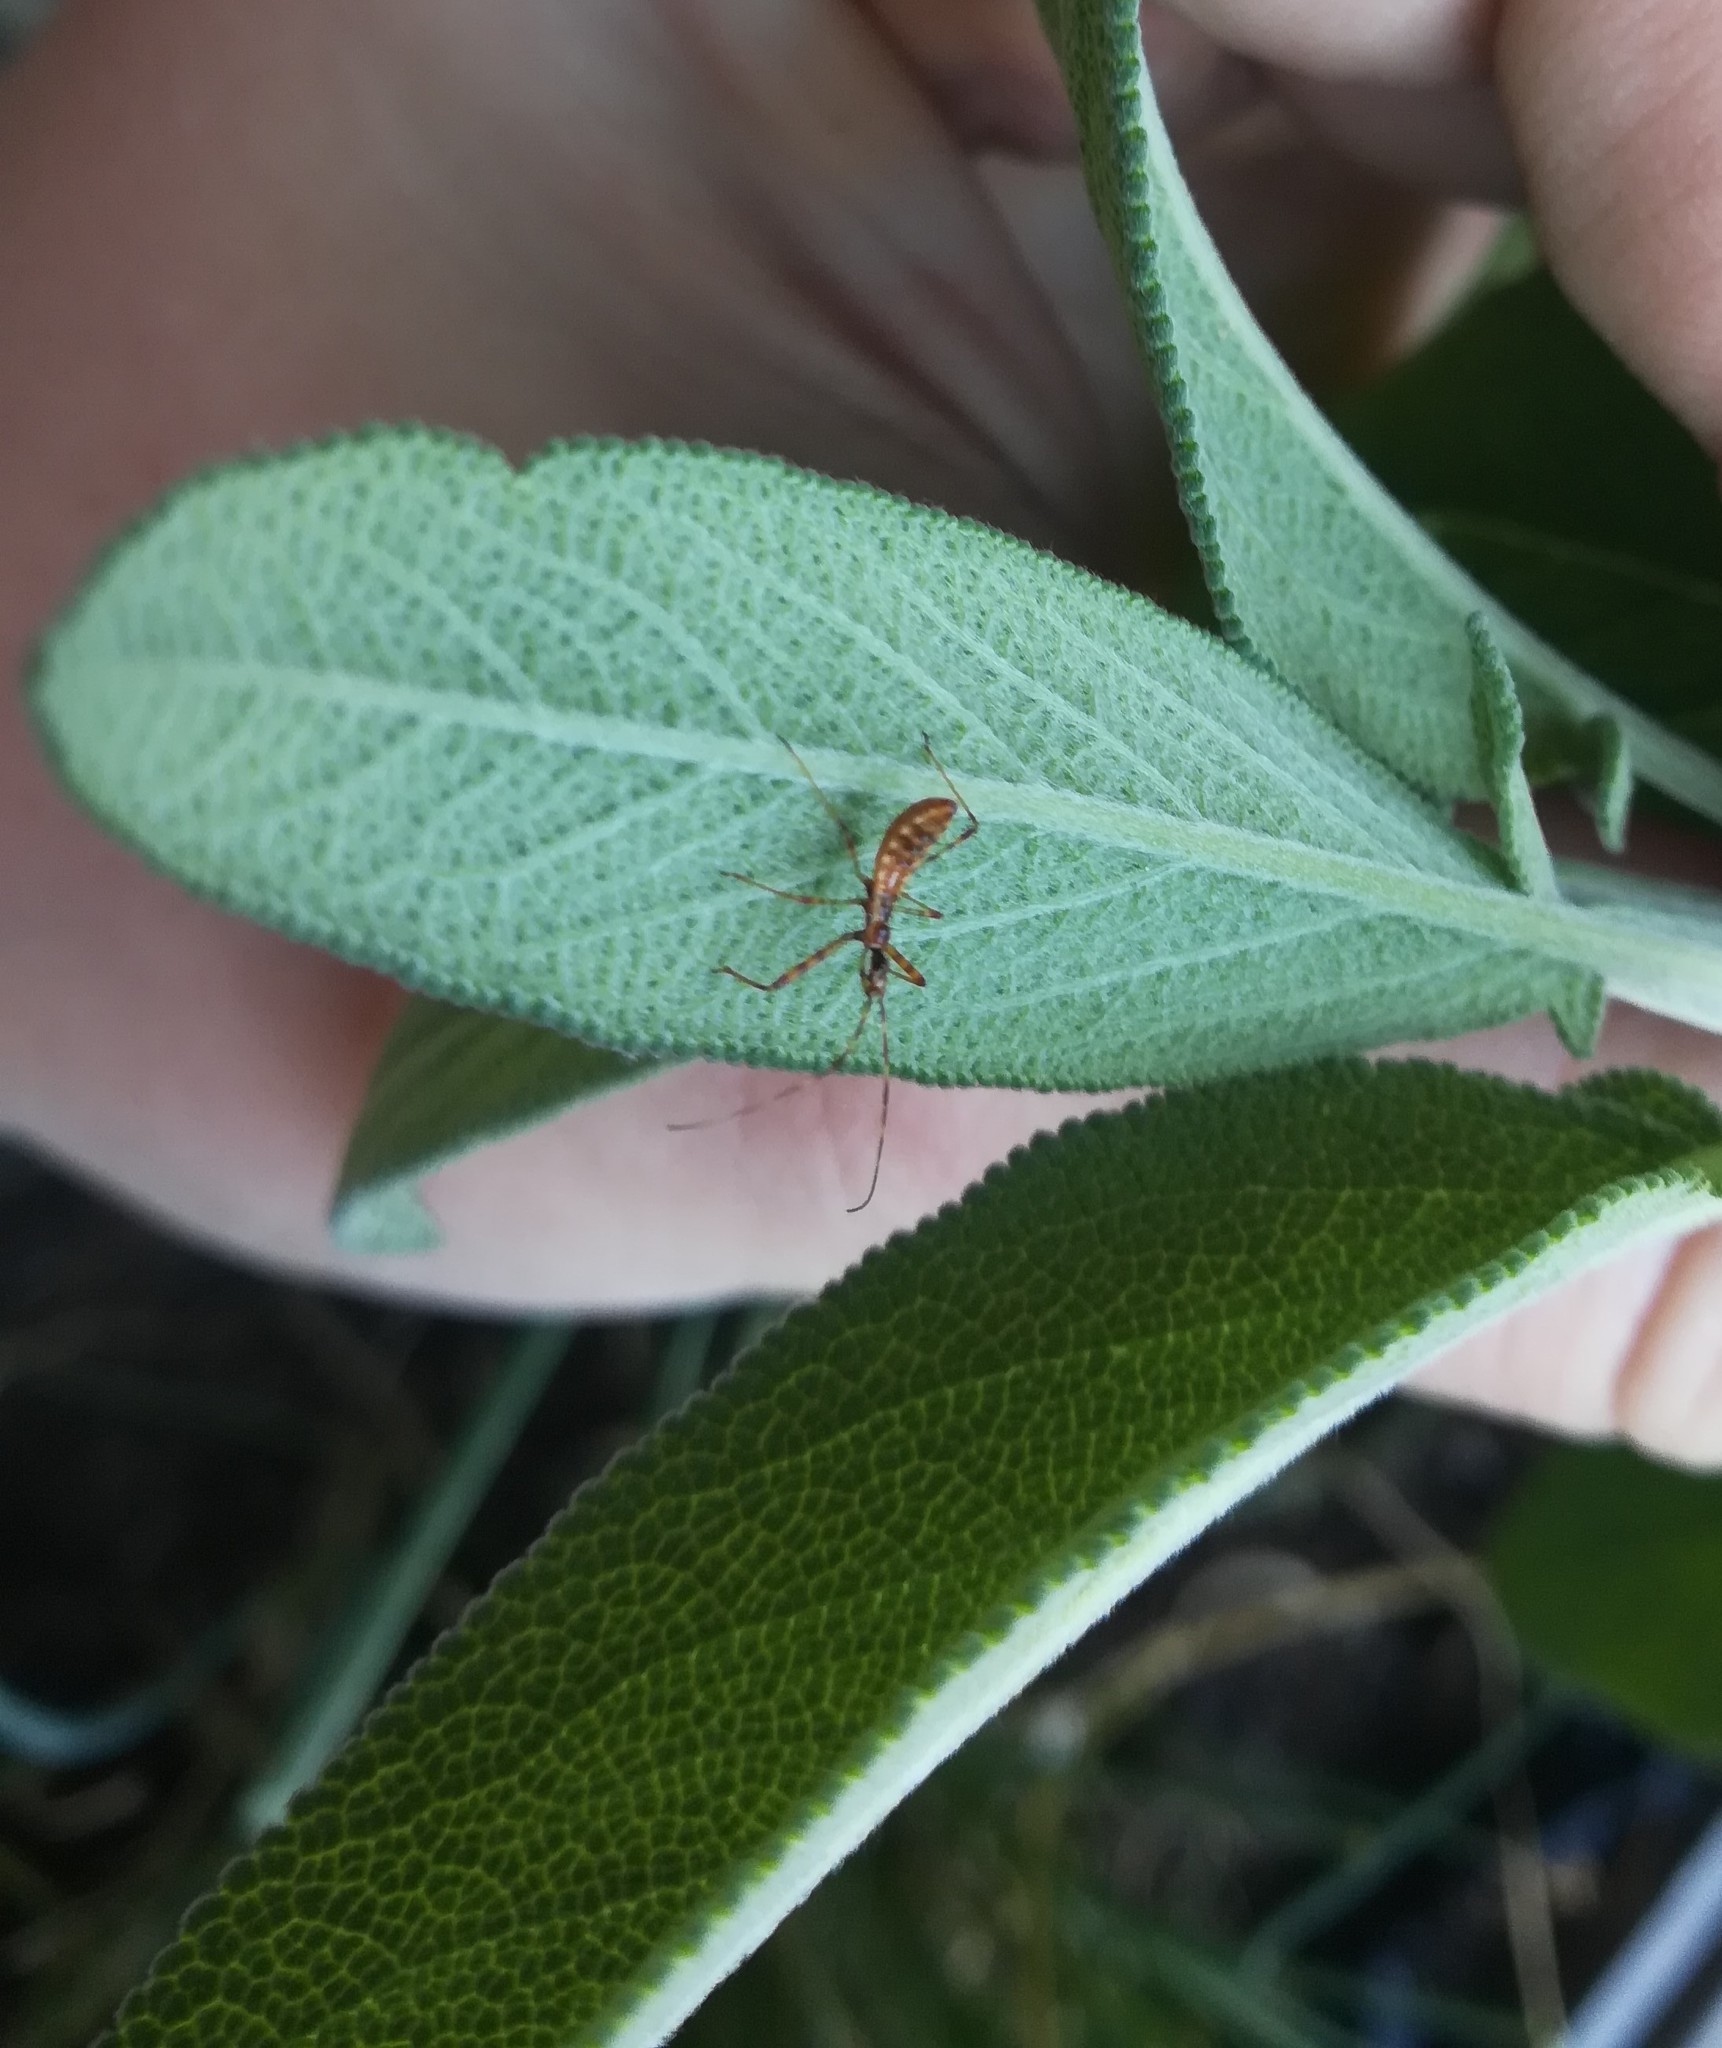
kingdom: Animalia
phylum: Arthropoda
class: Insecta
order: Hemiptera
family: Reduviidae
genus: Nagusta
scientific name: Nagusta goedelii
